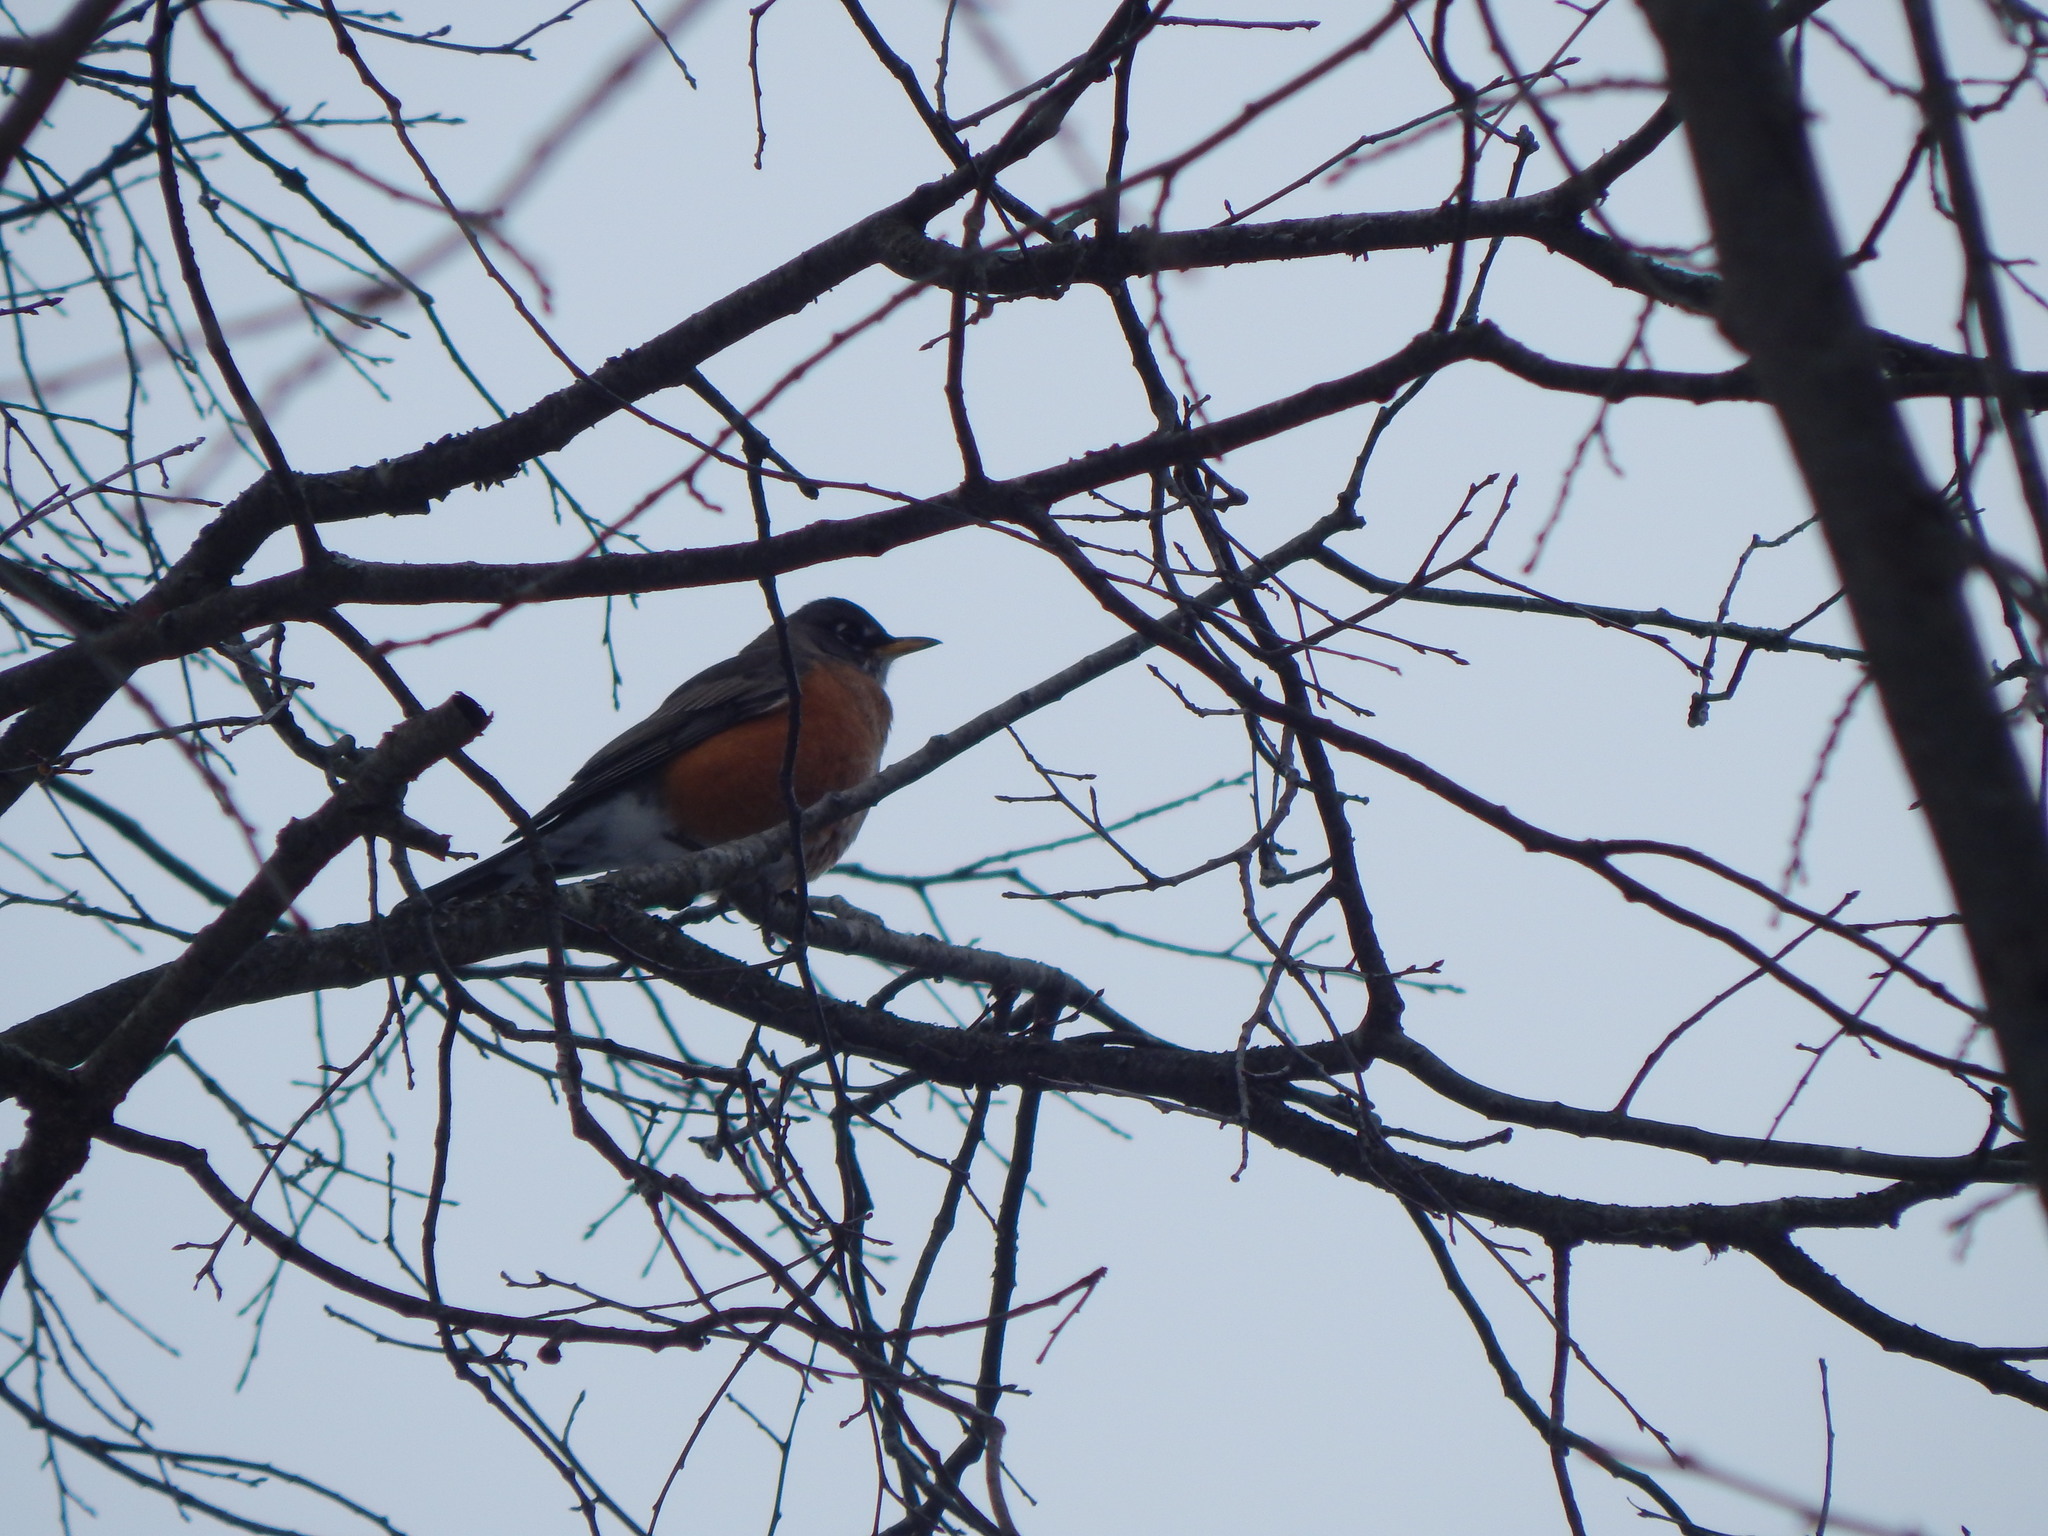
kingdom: Animalia
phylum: Chordata
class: Aves
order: Passeriformes
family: Turdidae
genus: Turdus
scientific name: Turdus migratorius
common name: American robin
